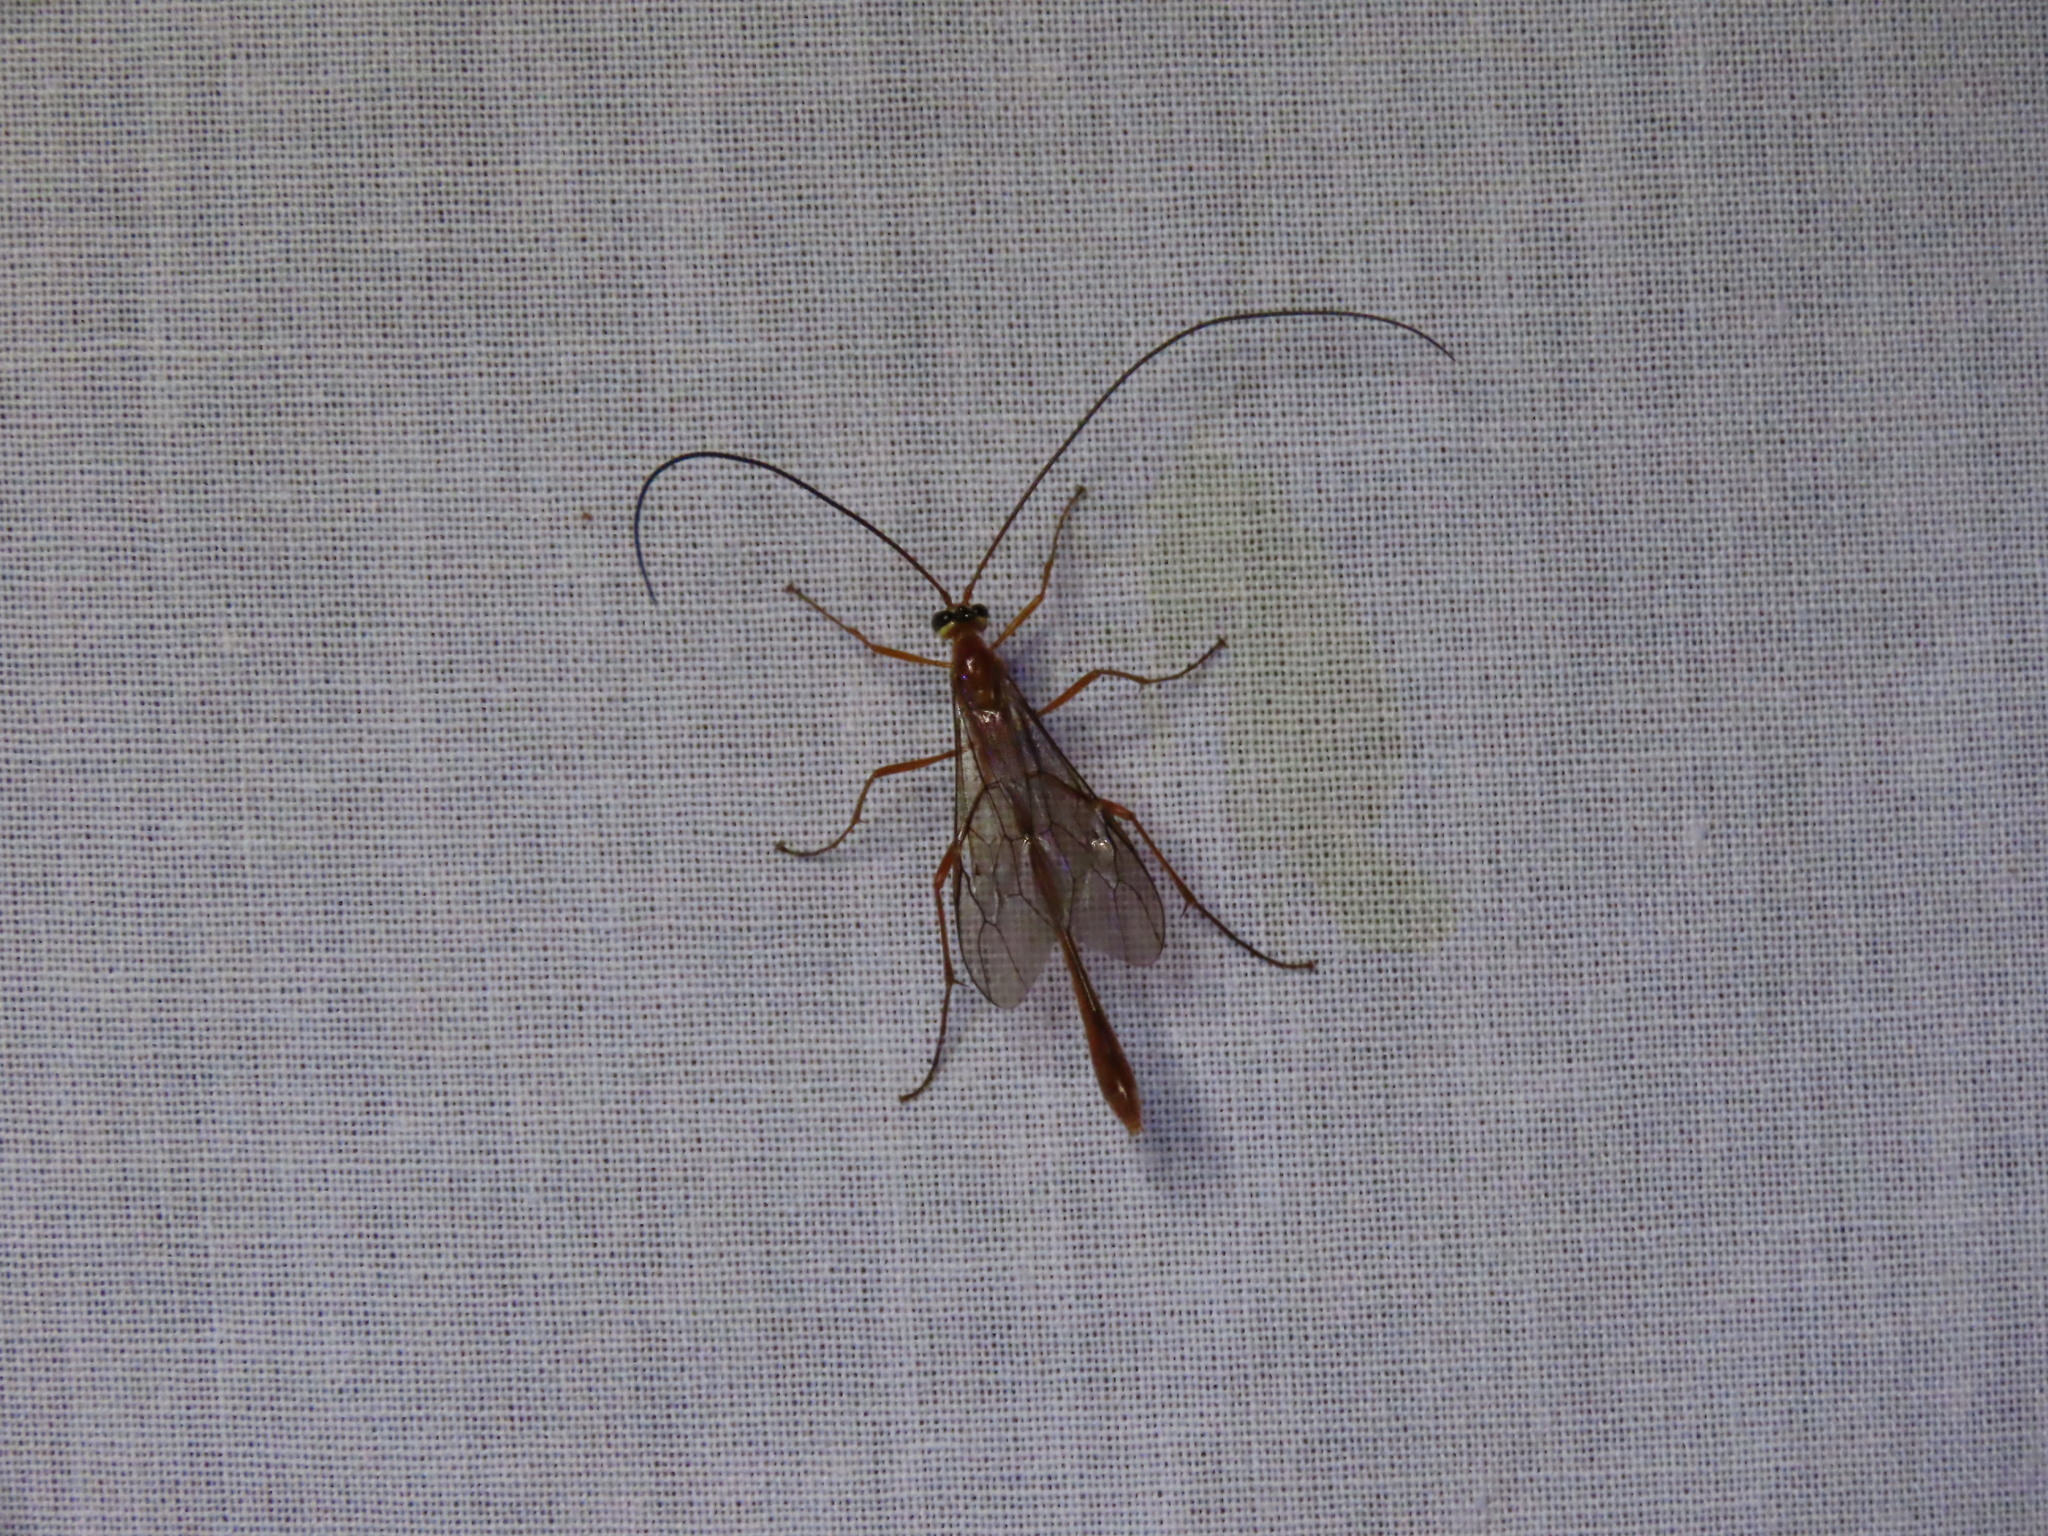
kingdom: Animalia
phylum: Arthropoda
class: Insecta
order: Hymenoptera
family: Ichneumonidae
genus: Dicamptus
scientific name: Dicamptus fuscicornis
